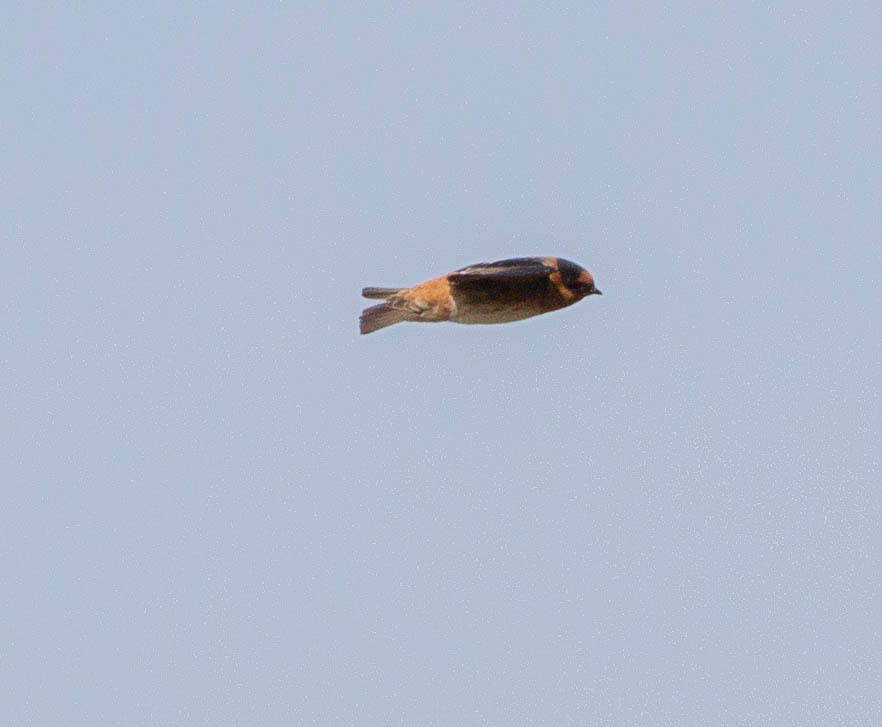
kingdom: Animalia
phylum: Chordata
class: Aves
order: Passeriformes
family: Hirundinidae
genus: Petrochelidon
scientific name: Petrochelidon fulva
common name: Cave swallow
